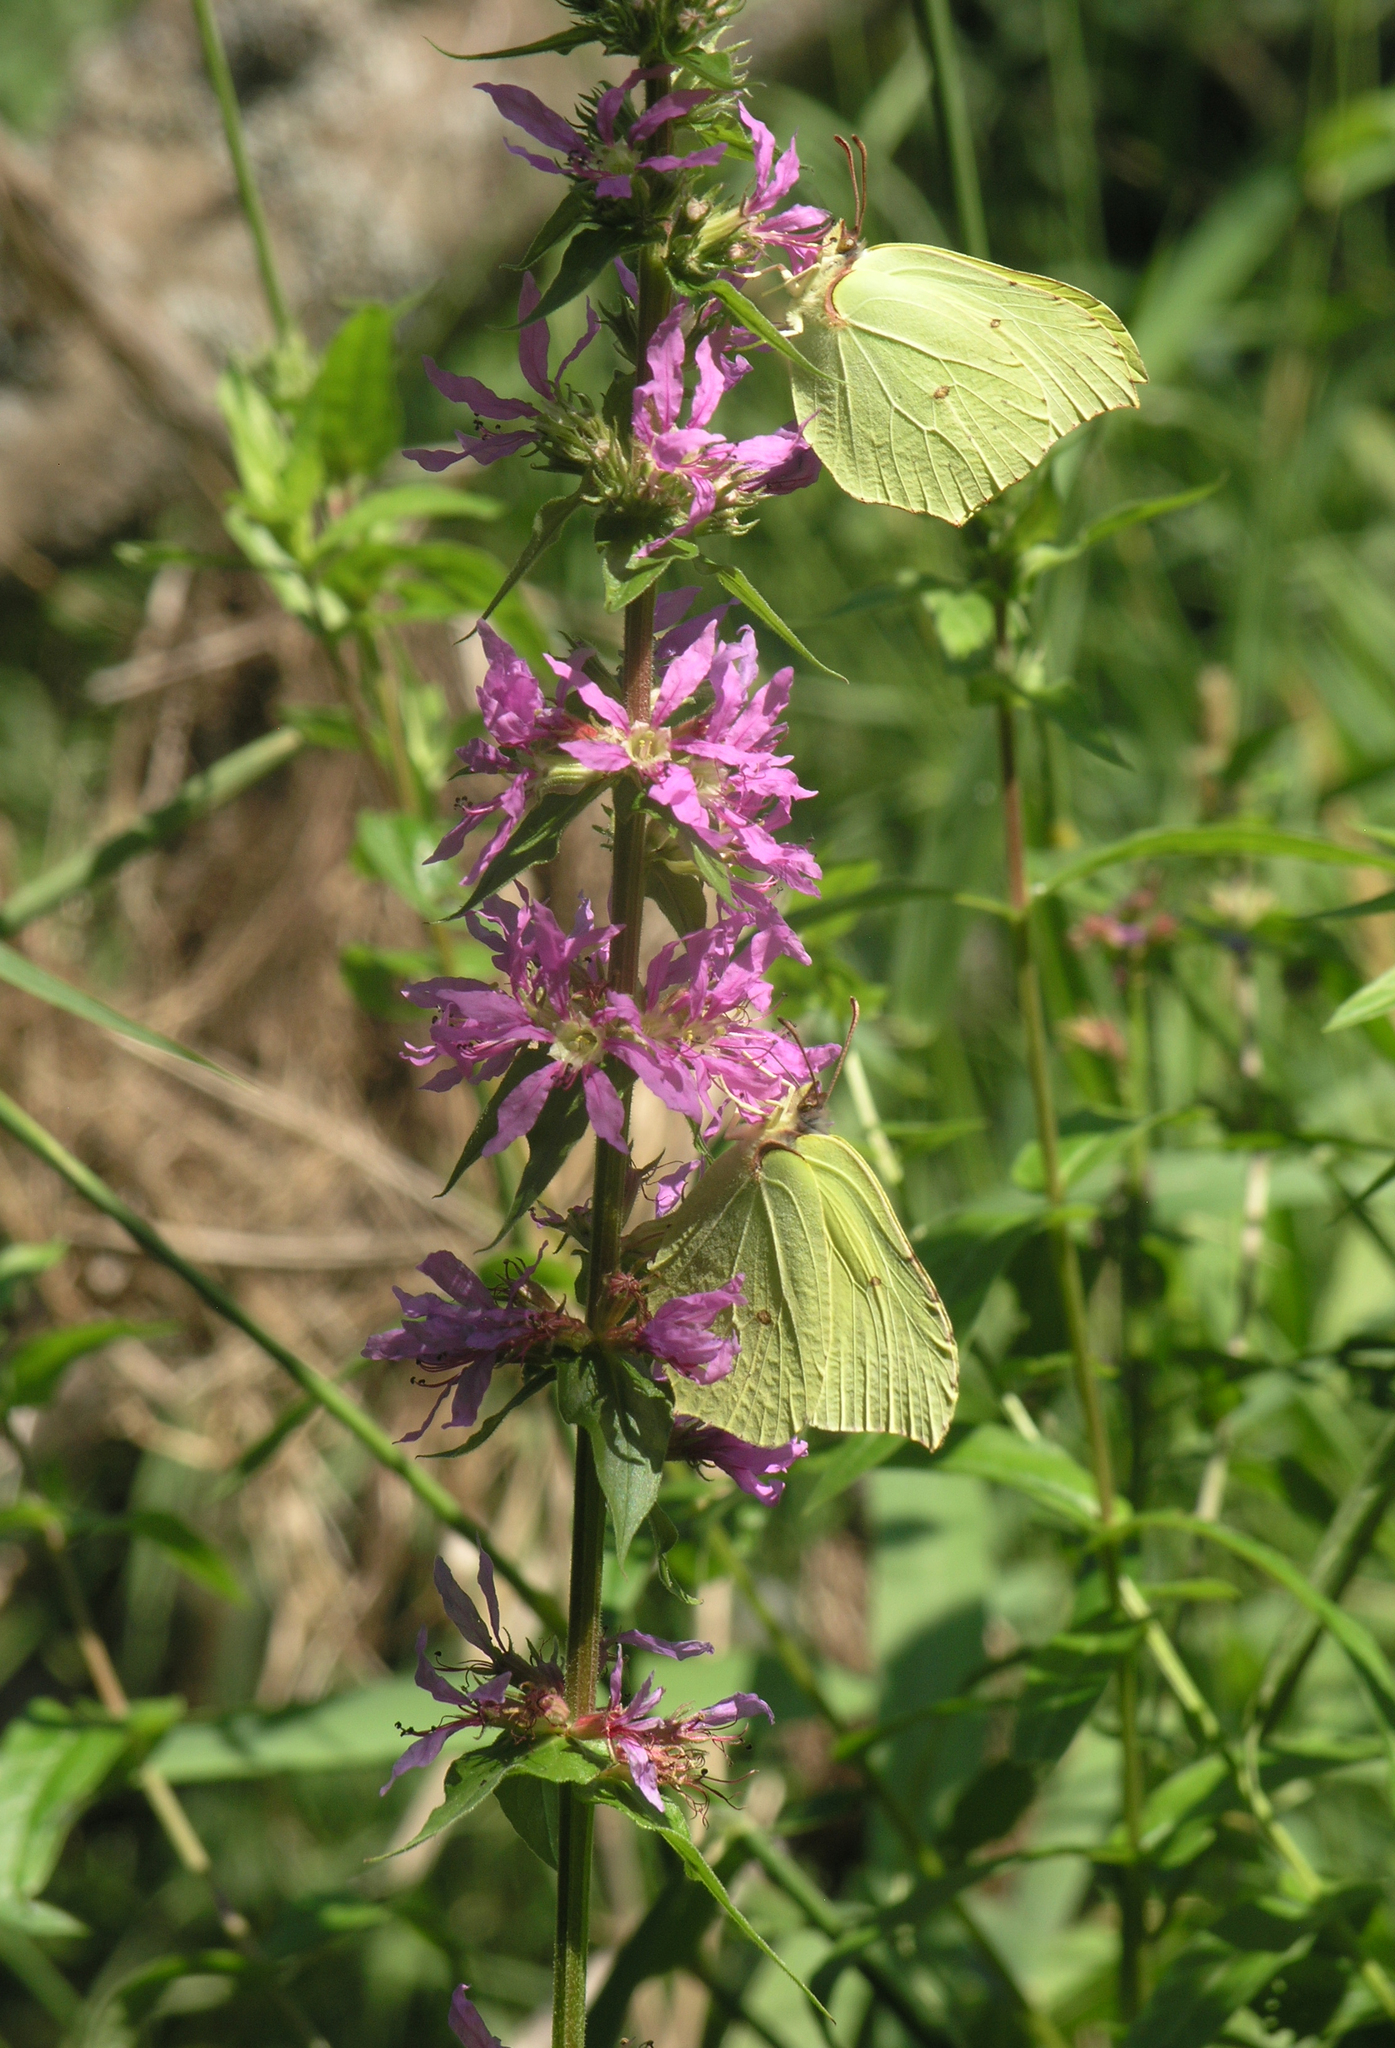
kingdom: Plantae
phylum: Tracheophyta
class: Magnoliopsida
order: Myrtales
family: Lythraceae
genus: Lythrum
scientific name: Lythrum salicaria
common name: Purple loosestrife
